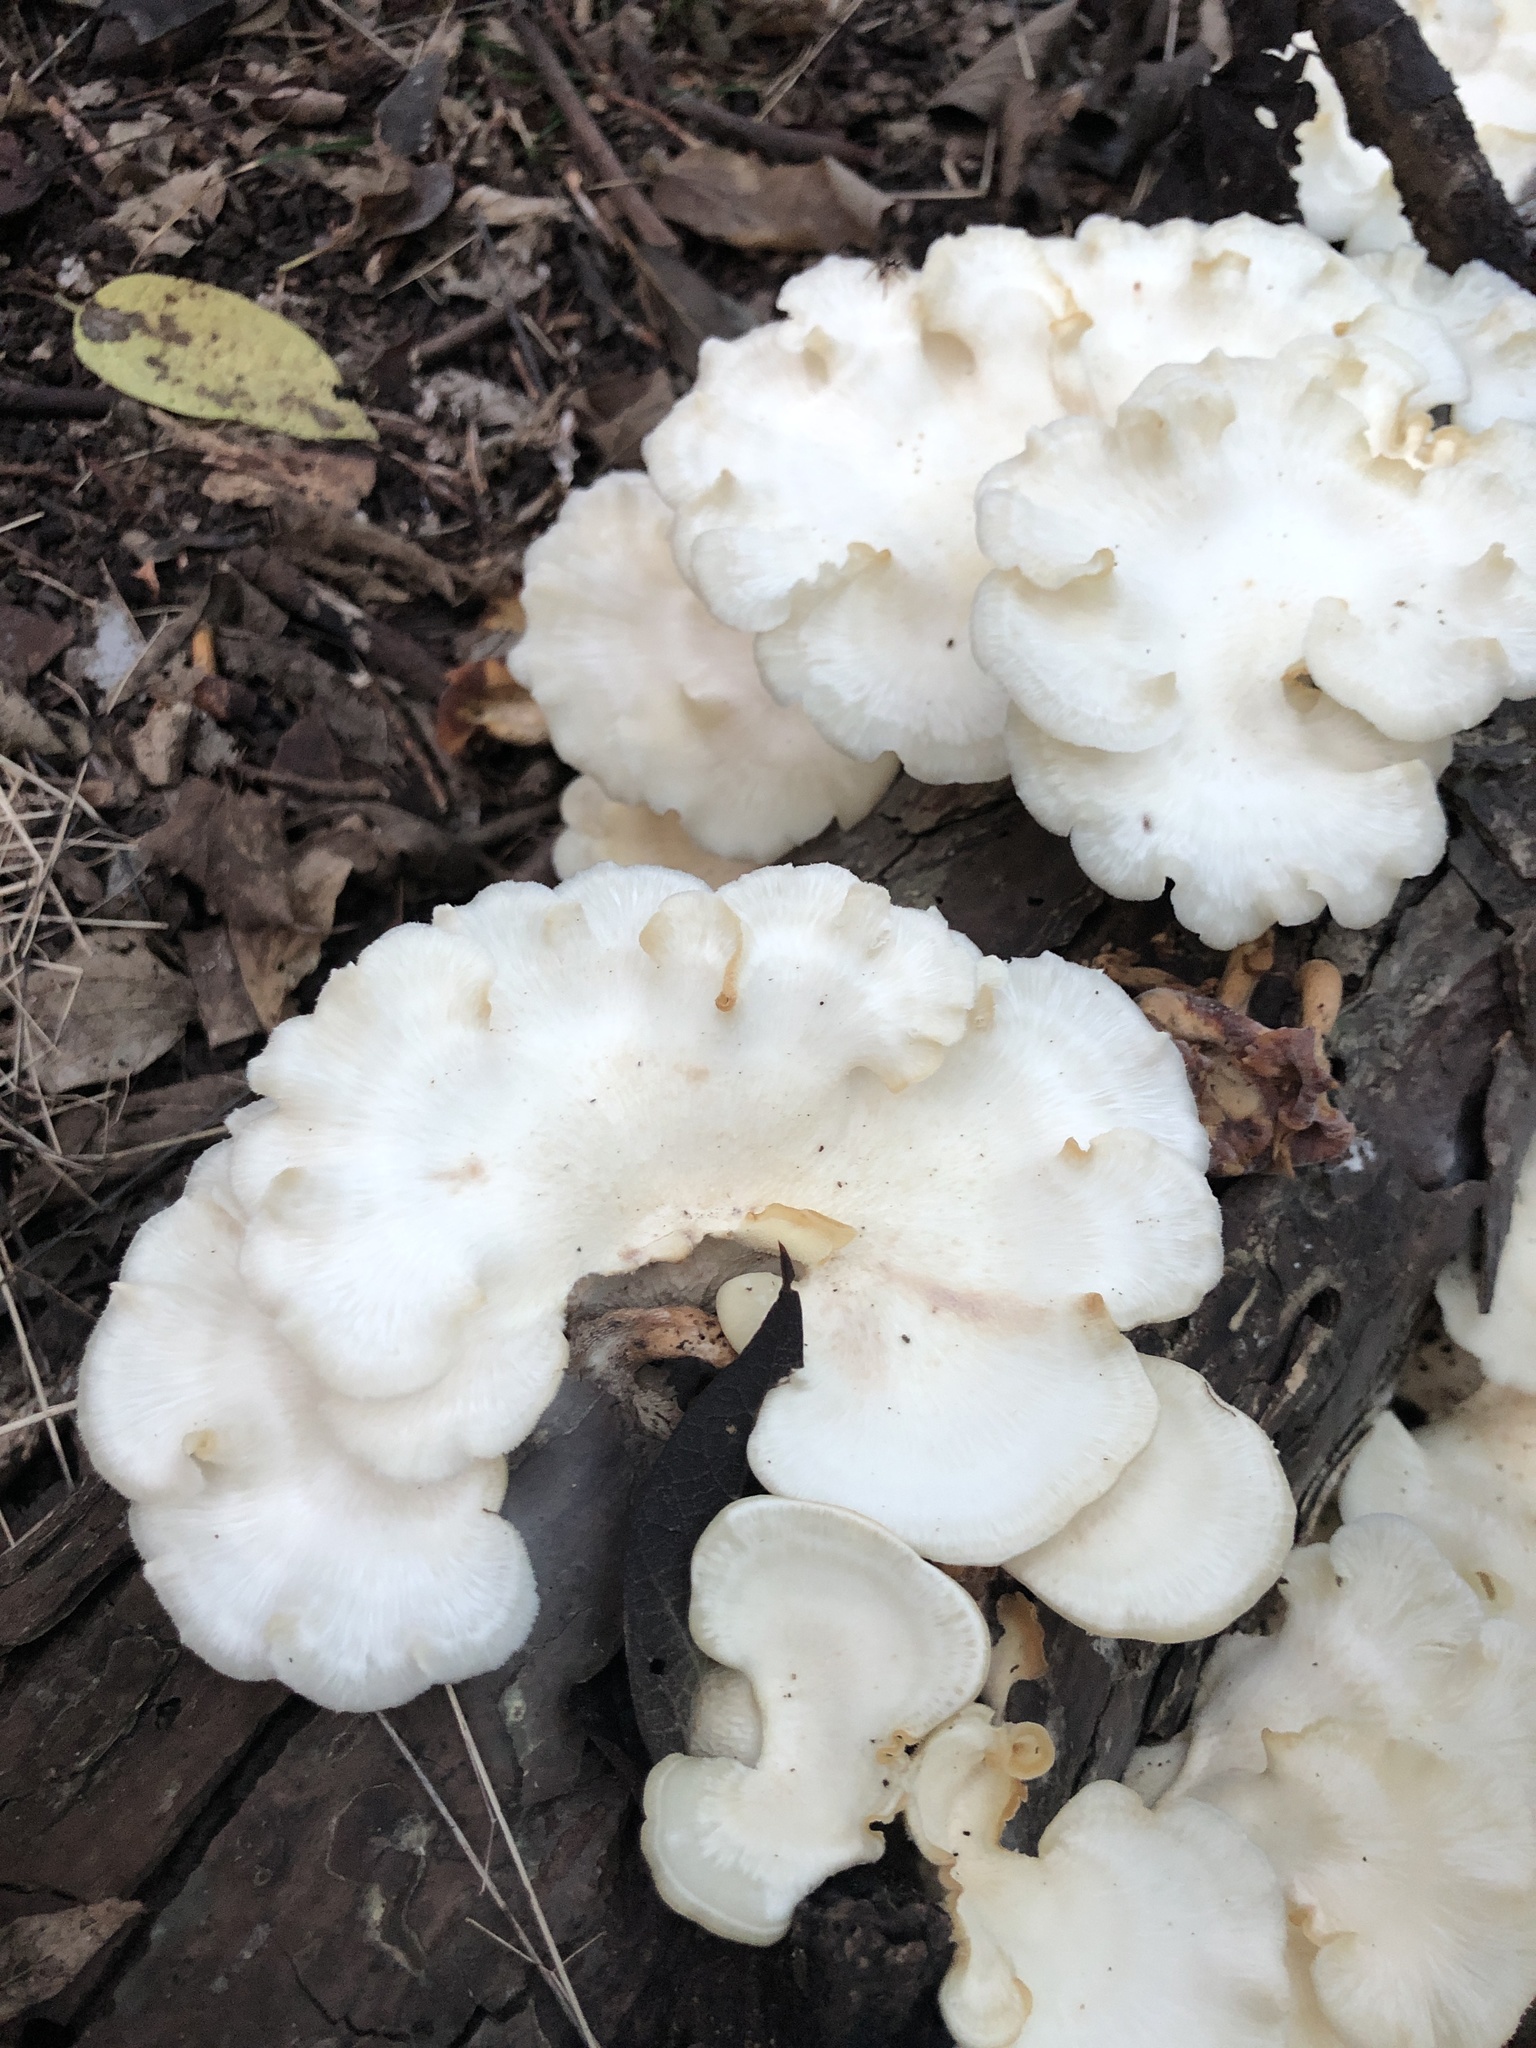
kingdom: Fungi
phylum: Basidiomycota
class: Agaricomycetes
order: Polyporales
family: Polyporaceae
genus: Favolus
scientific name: Favolus tenuiculus
